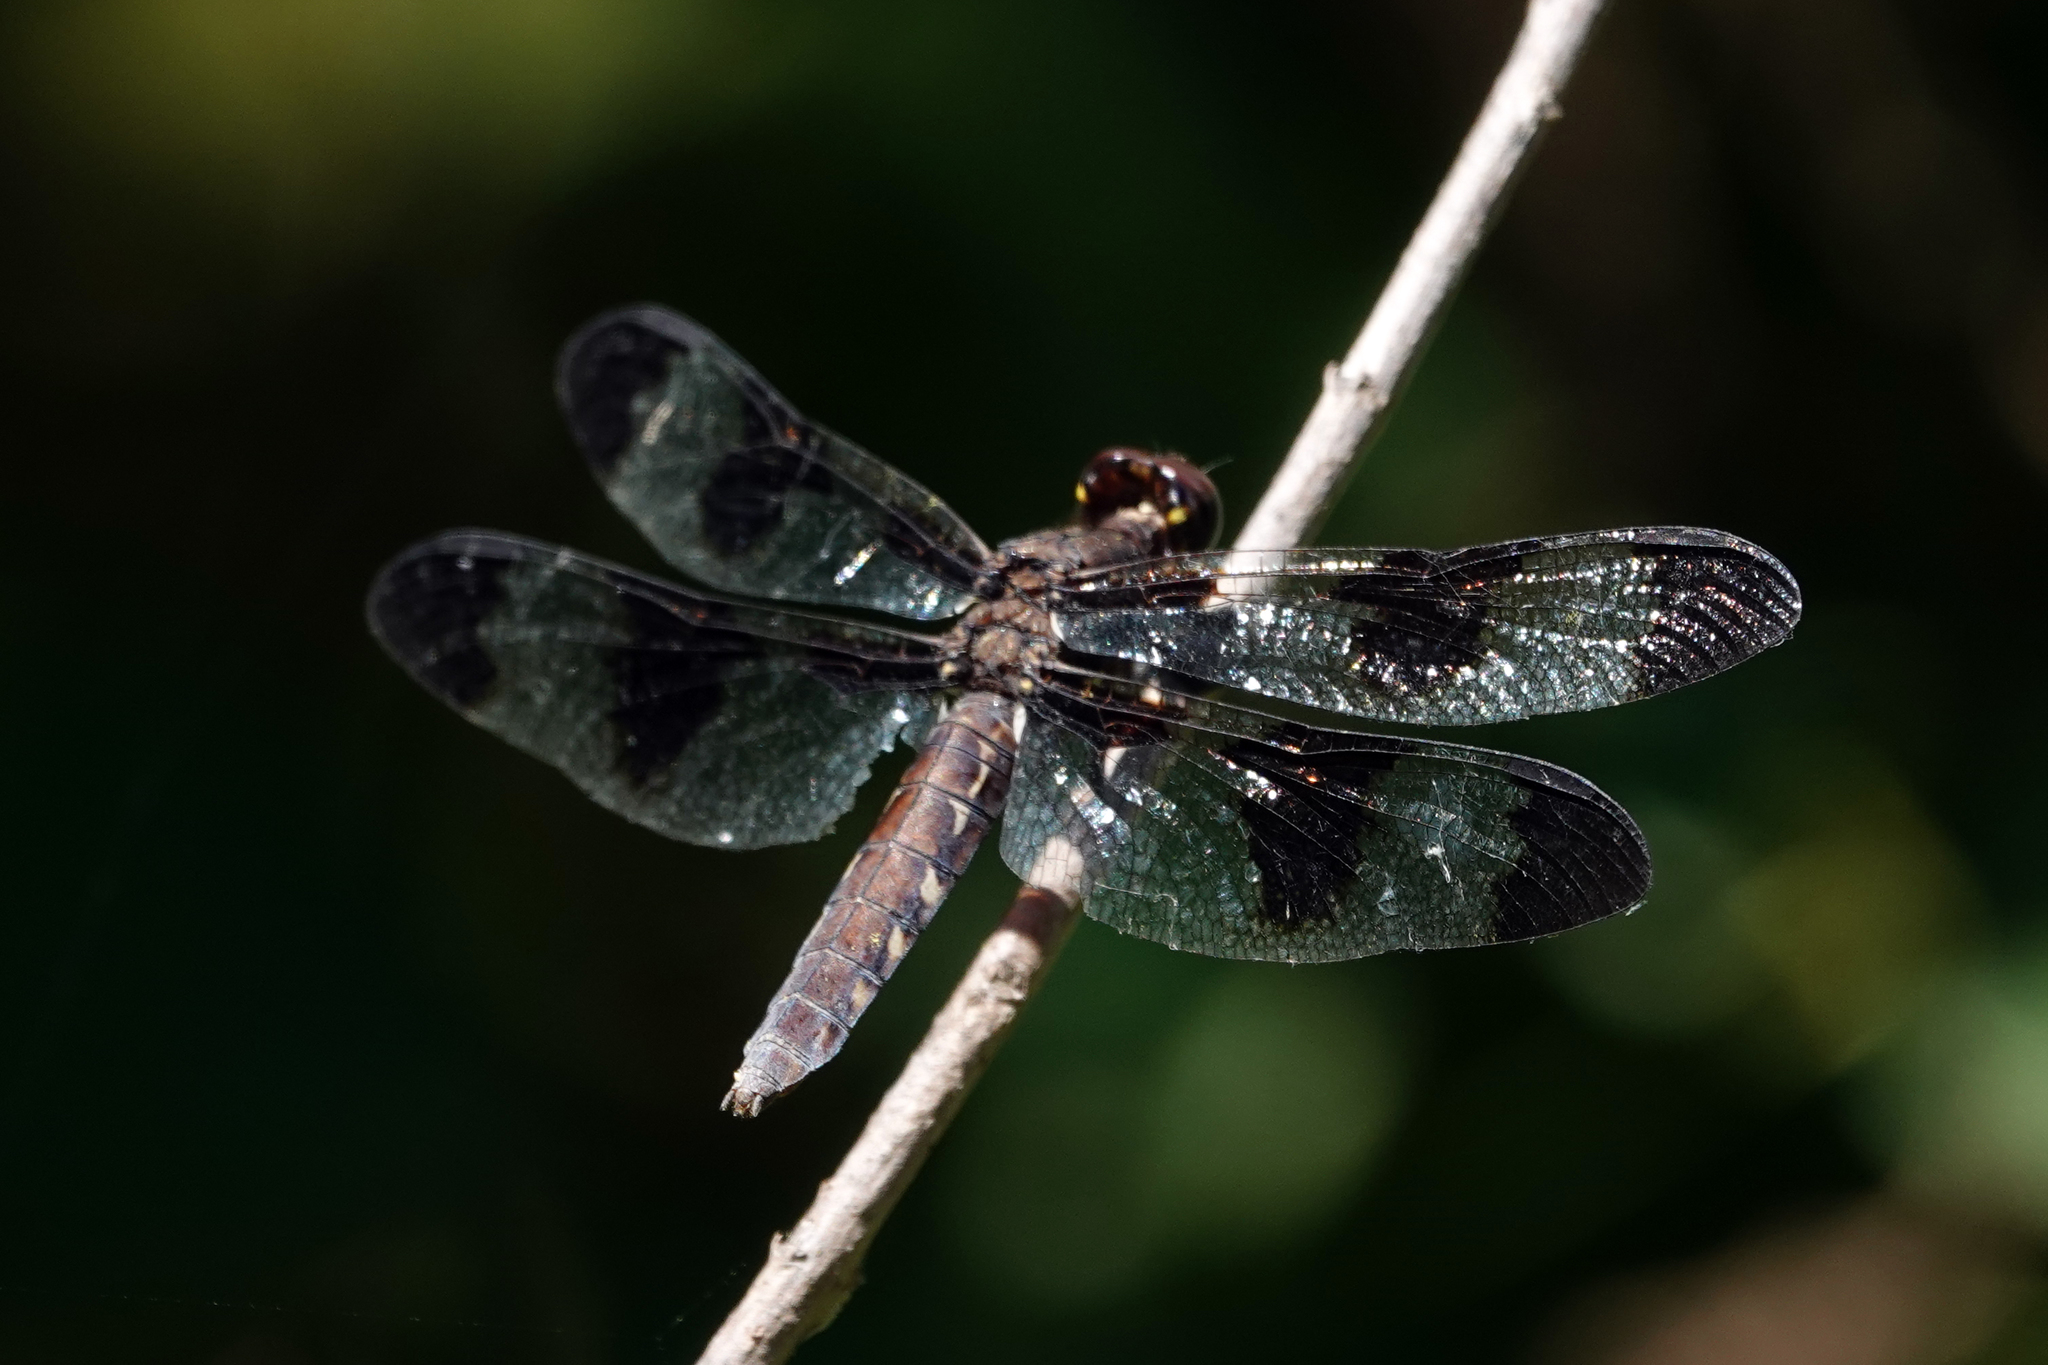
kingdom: Animalia
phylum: Arthropoda
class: Insecta
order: Odonata
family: Libellulidae
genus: Plathemis
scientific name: Plathemis lydia
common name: Common whitetail
